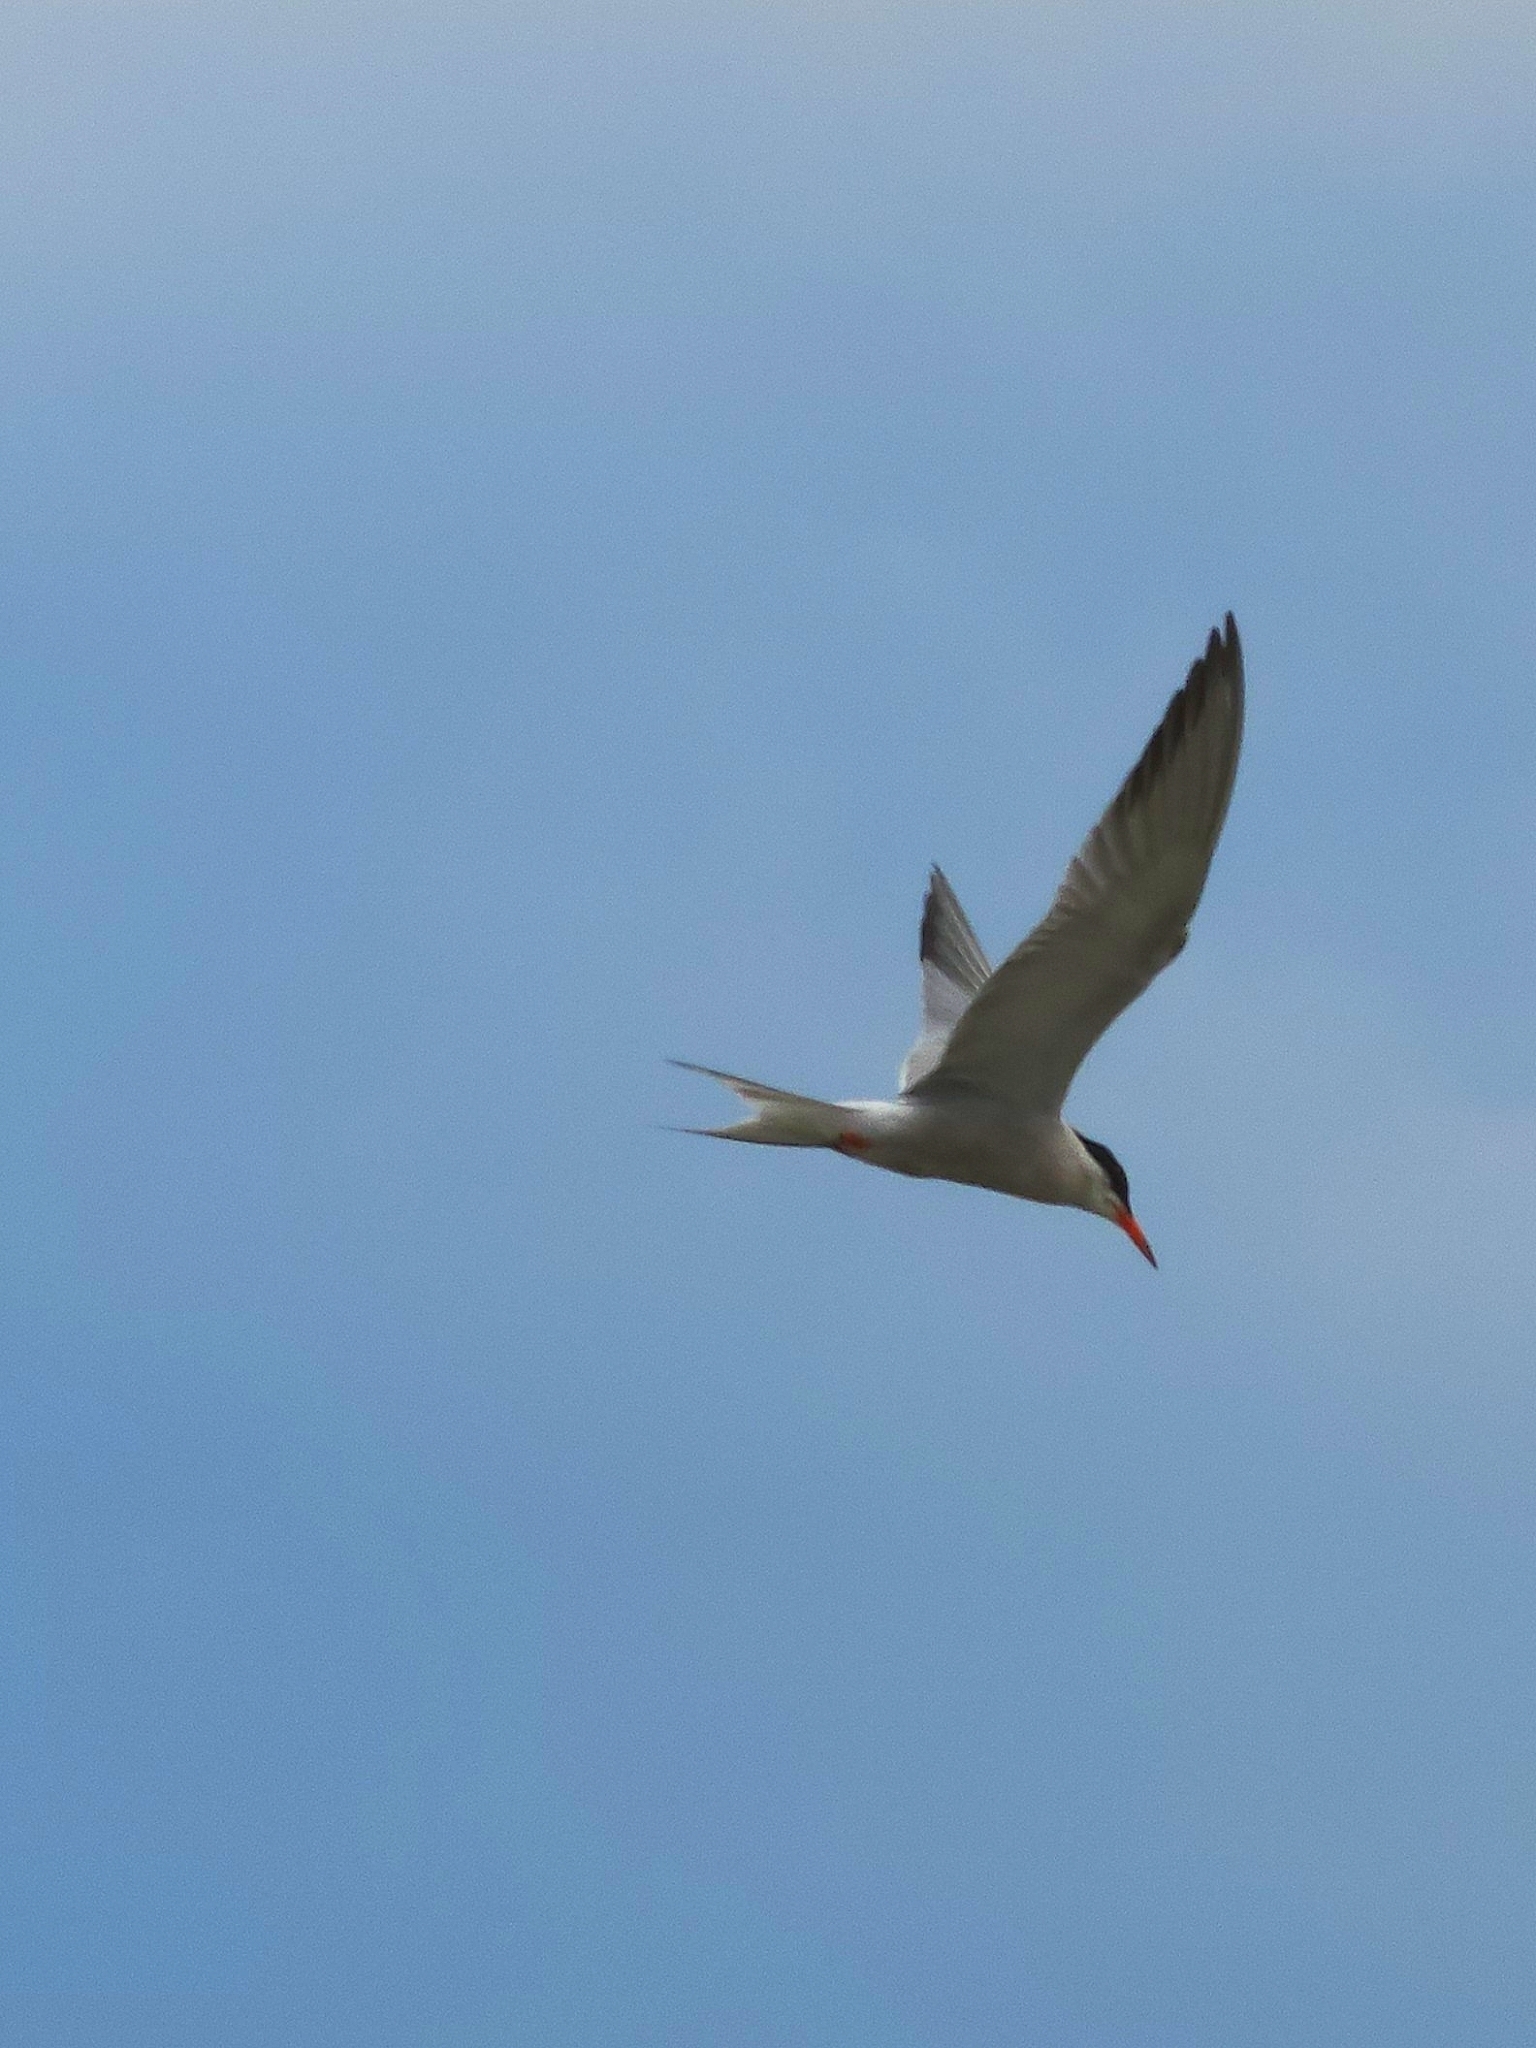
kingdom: Animalia
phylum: Chordata
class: Aves
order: Charadriiformes
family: Laridae
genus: Sterna
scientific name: Sterna hirundo
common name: Common tern
